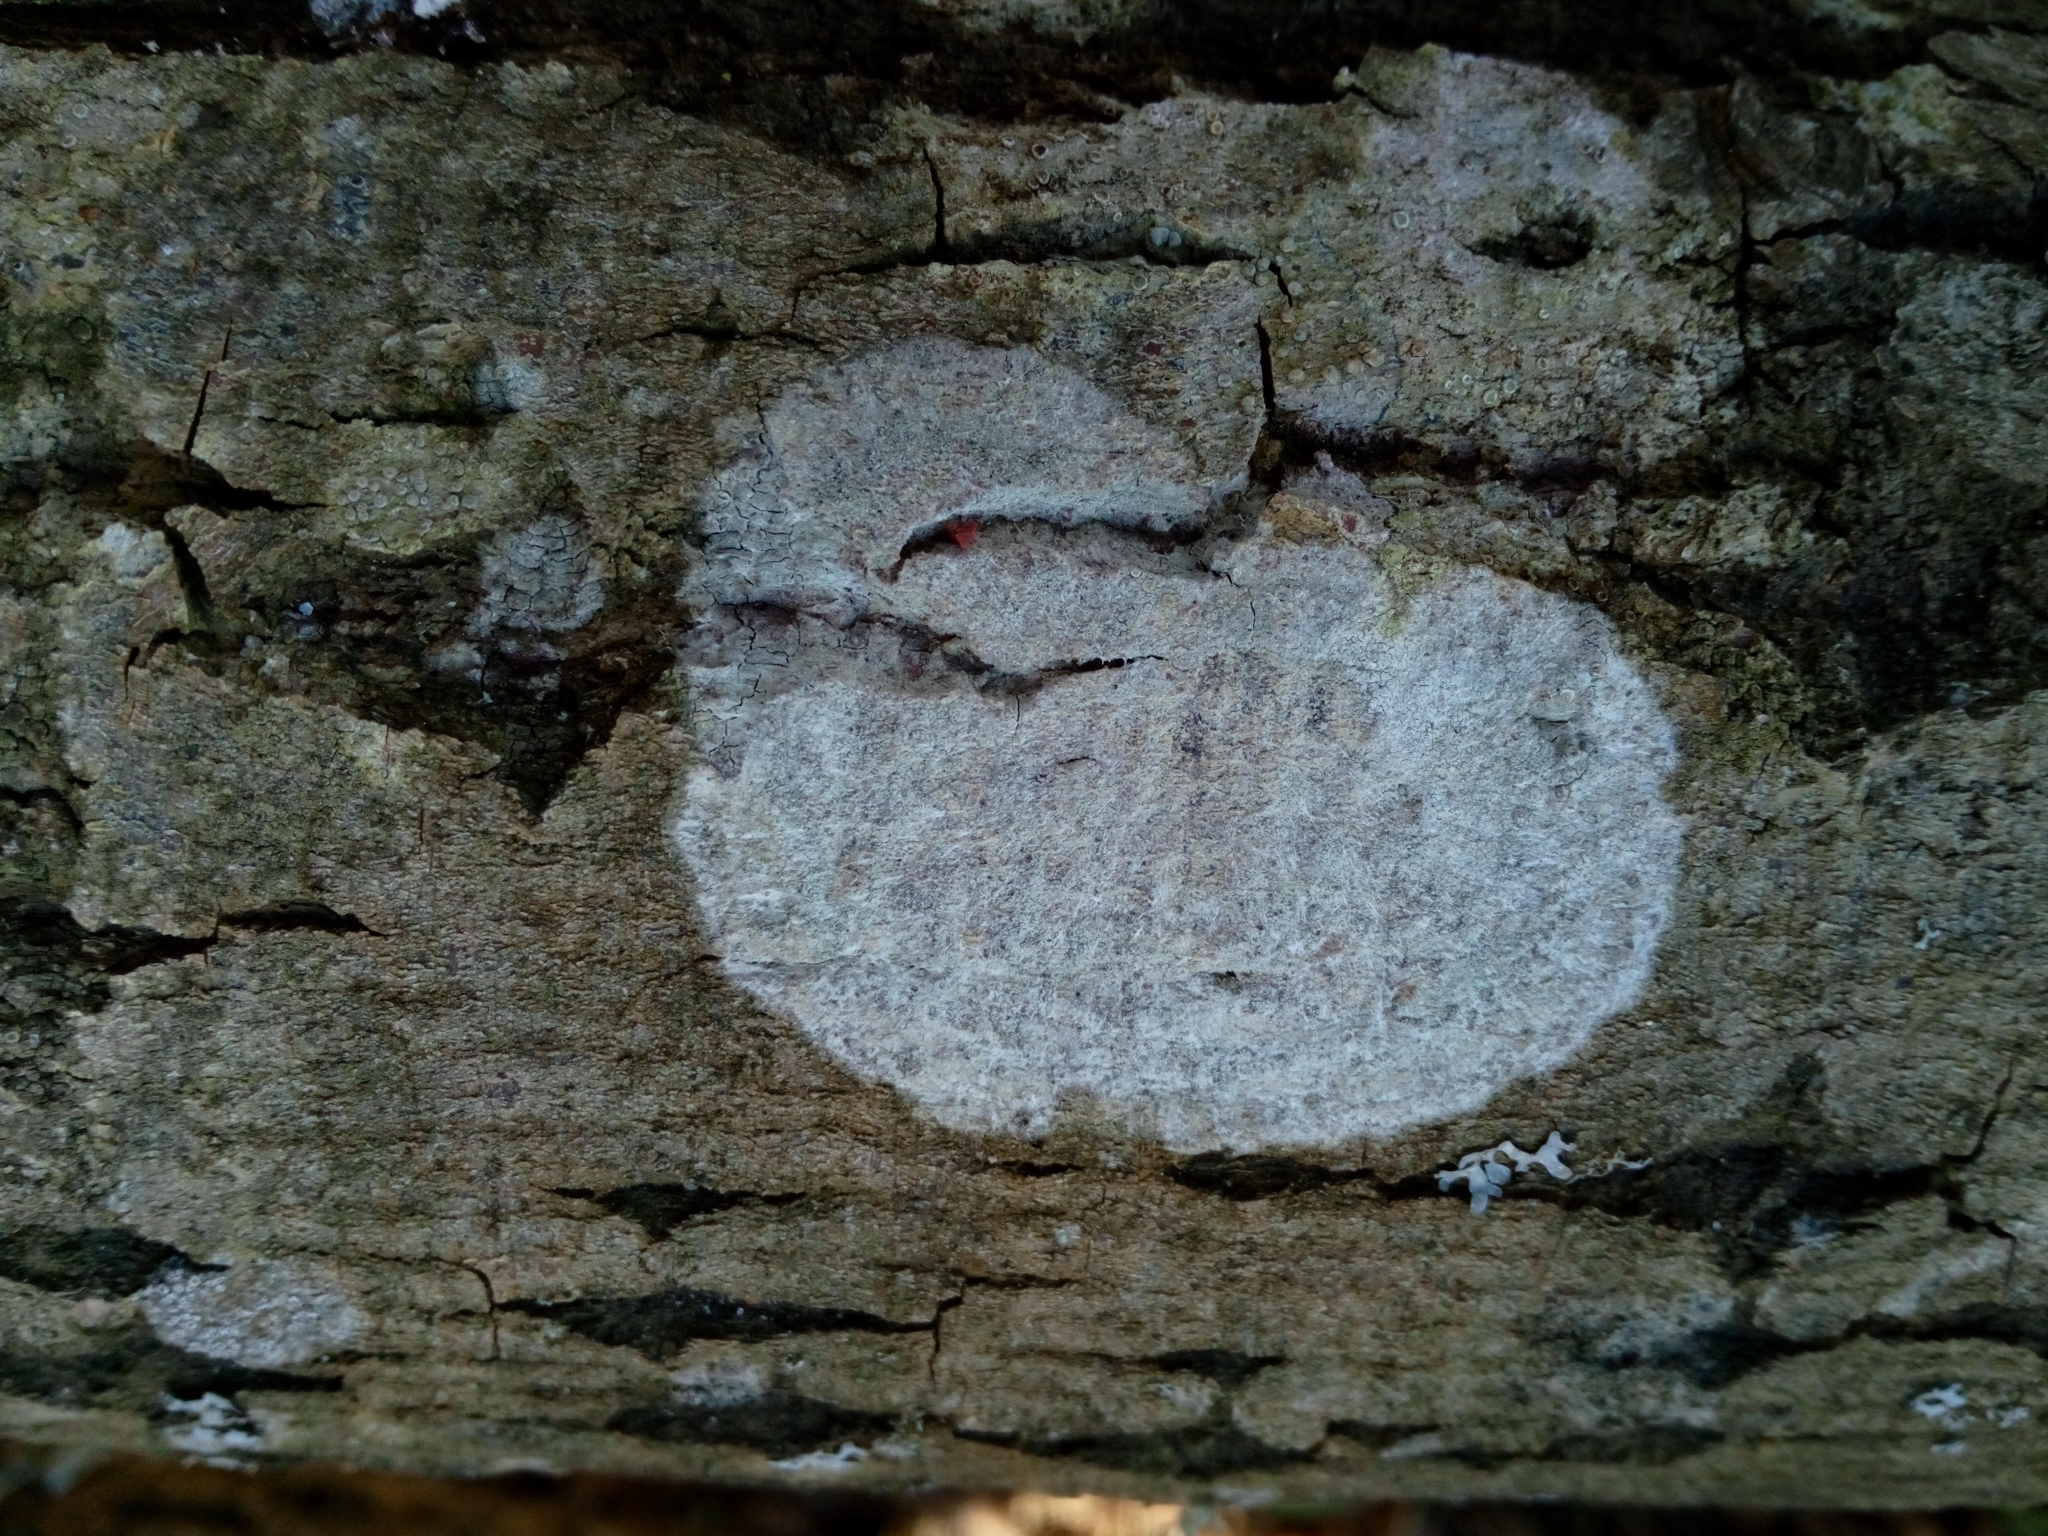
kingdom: Fungi
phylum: Ascomycota
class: Lecanoromycetes
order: Ostropales
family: Phlyctidaceae
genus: Phlyctis
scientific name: Phlyctis argena
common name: Whitewash lichen
